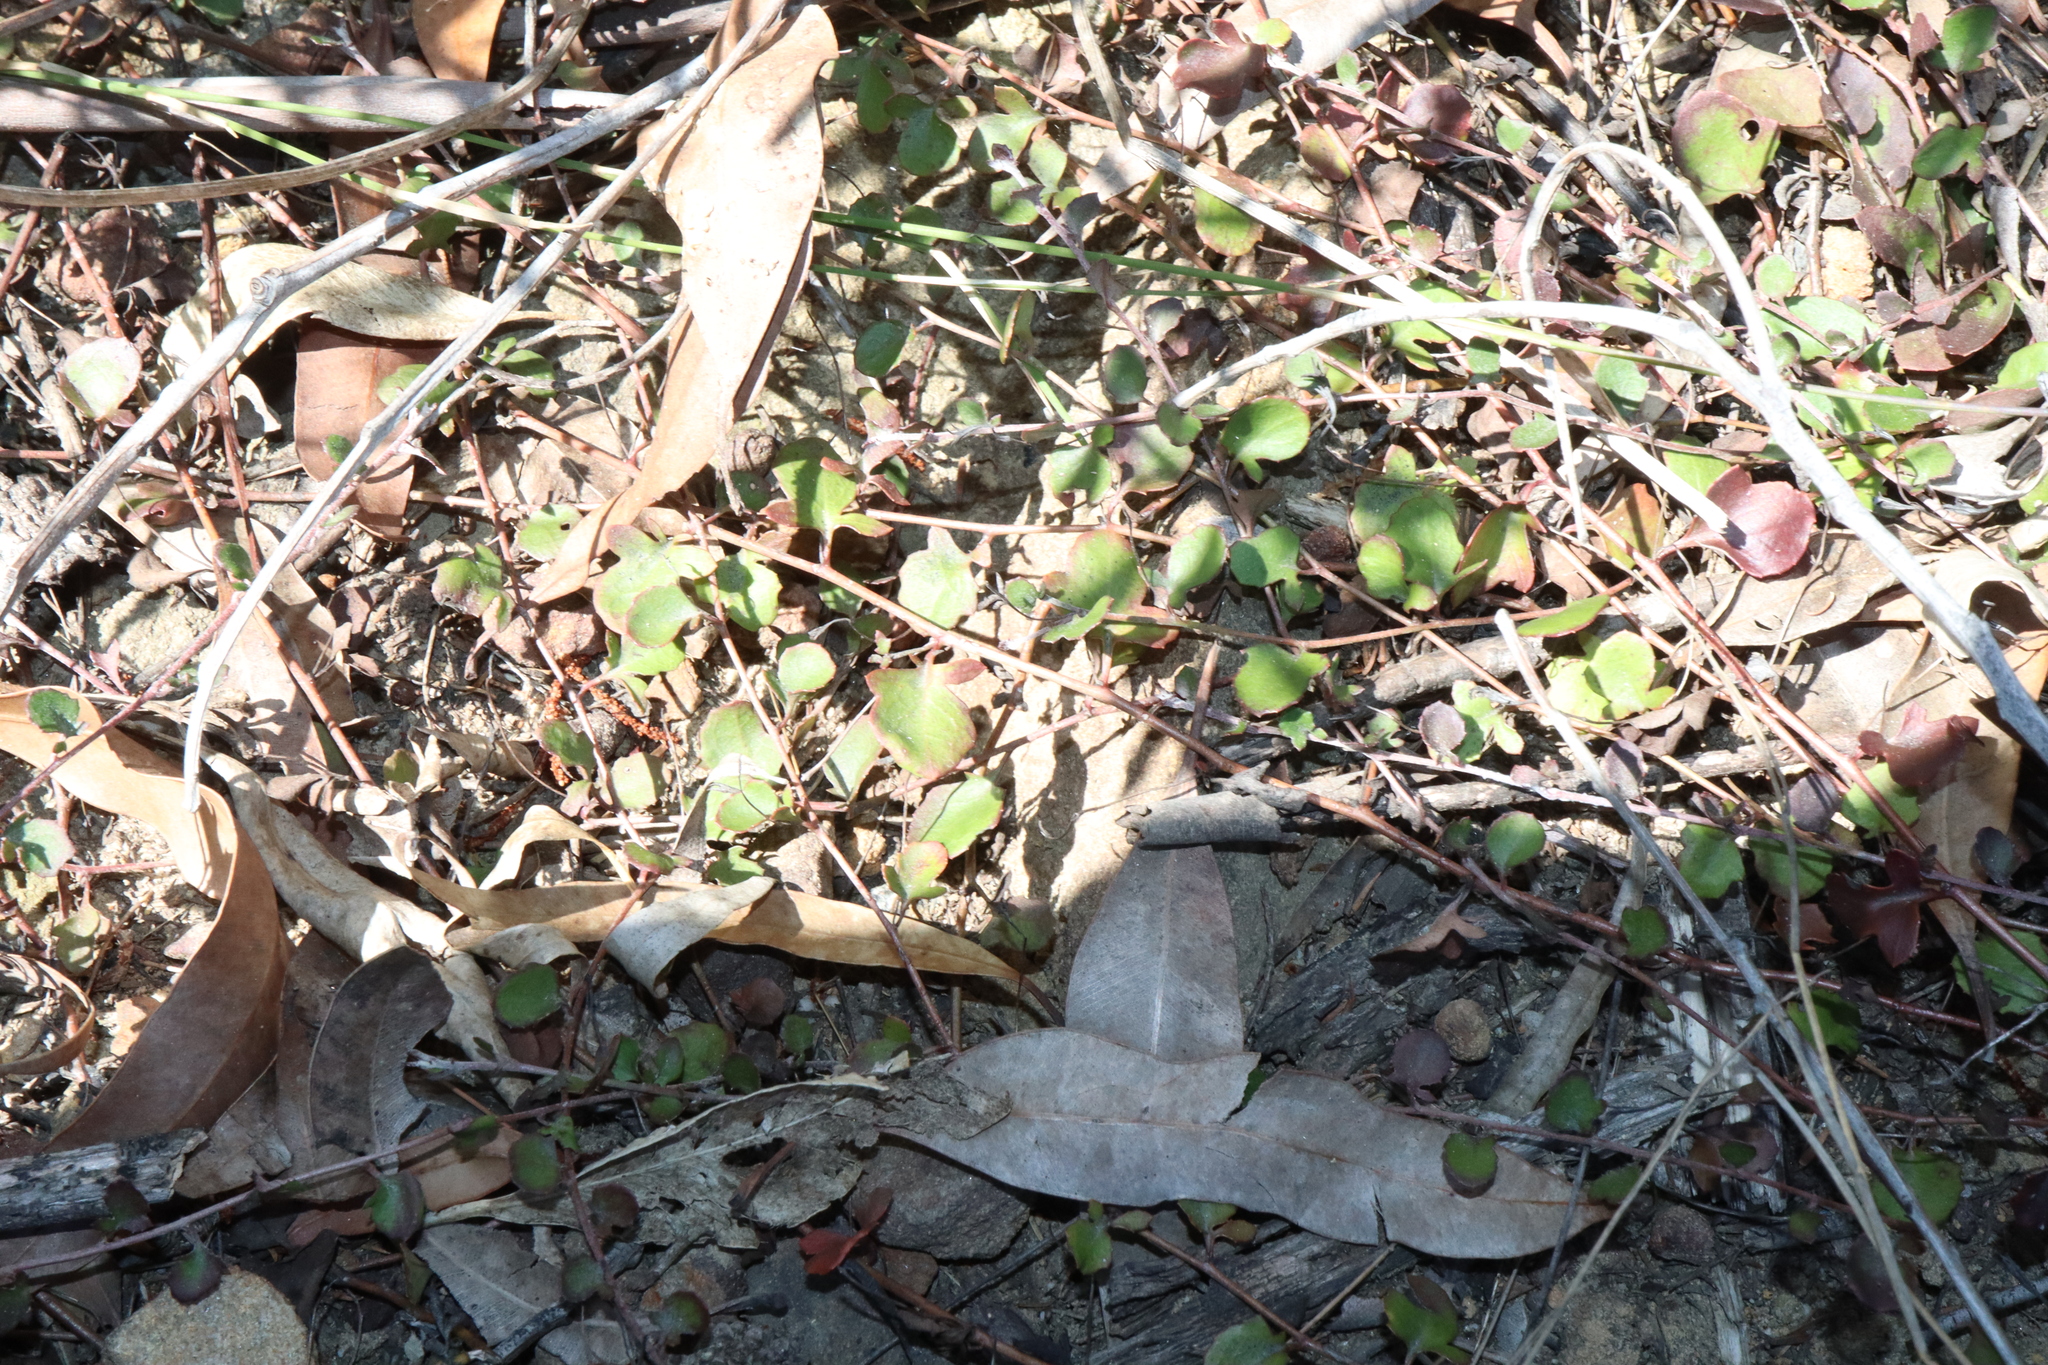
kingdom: Plantae
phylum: Tracheophyta
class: Magnoliopsida
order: Asterales
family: Goodeniaceae
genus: Goodenia
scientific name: Goodenia hederacea
